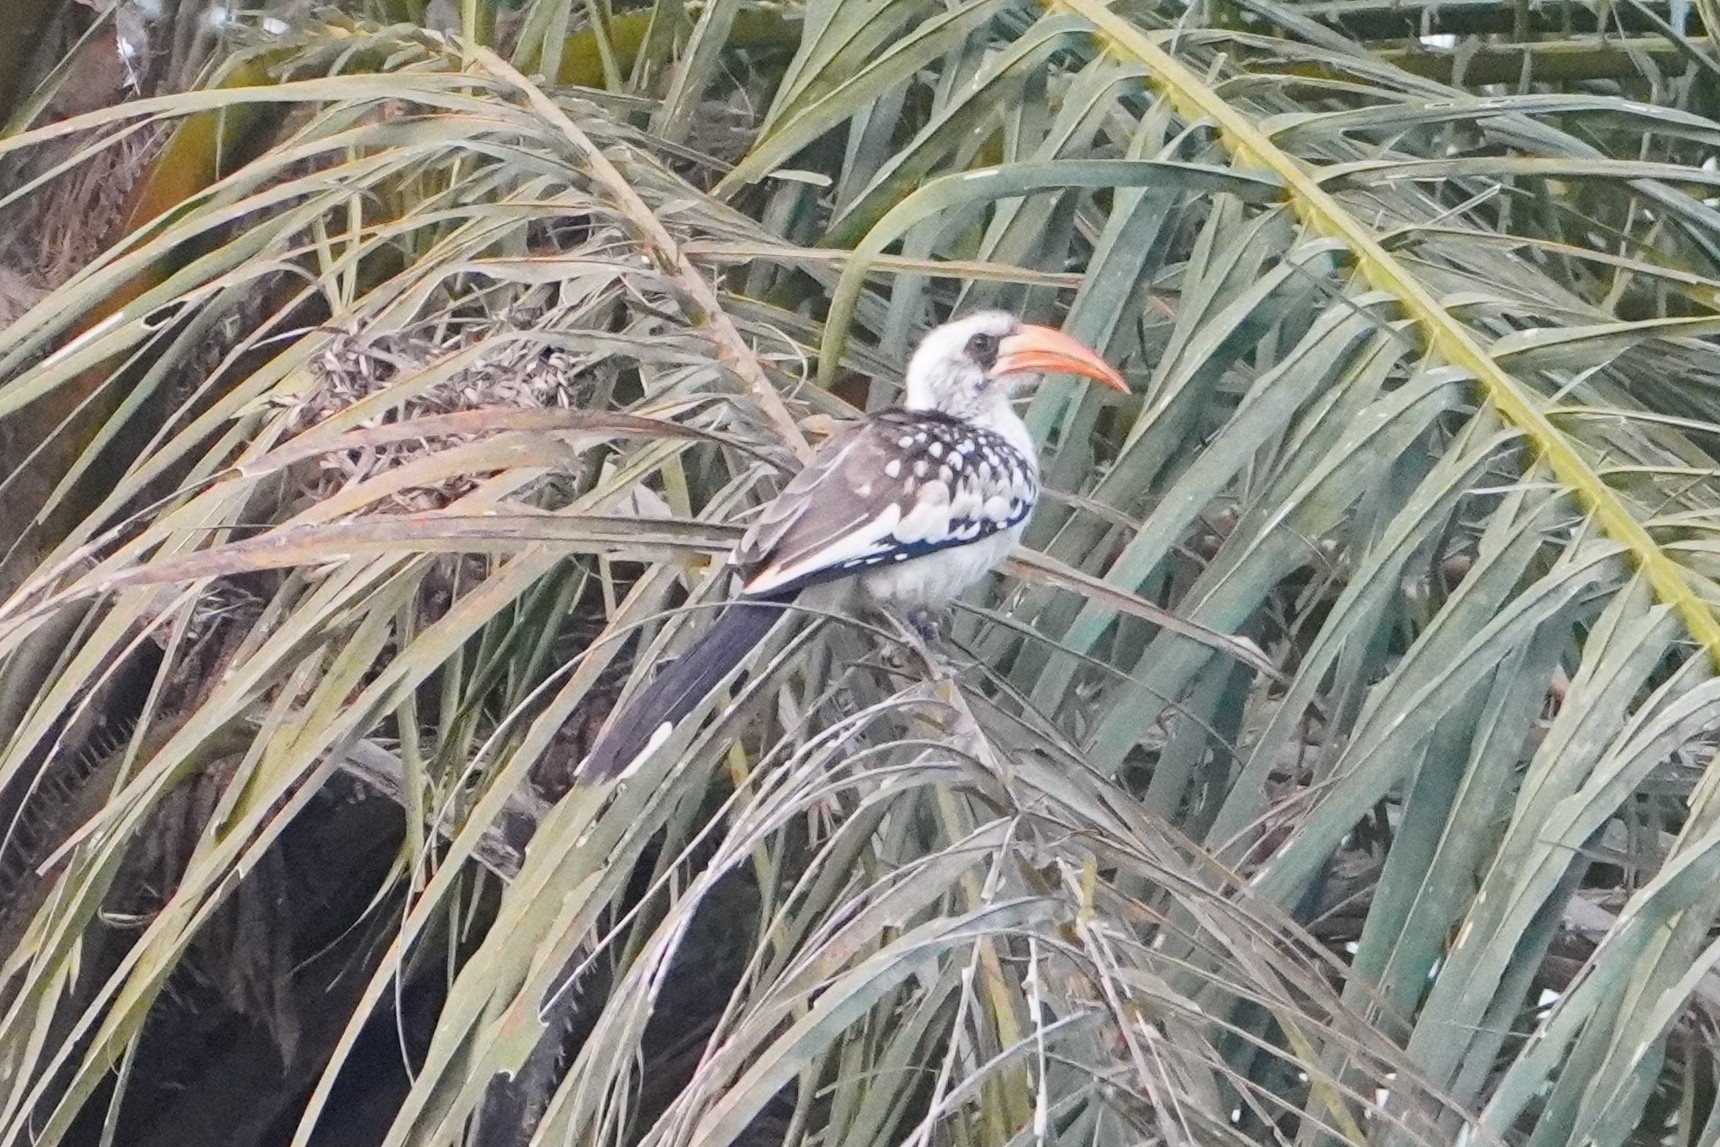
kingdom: Animalia
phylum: Chordata
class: Aves
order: Bucerotiformes
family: Bucerotidae
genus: Tockus
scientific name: Tockus kempi
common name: Western red-billed hornbill
